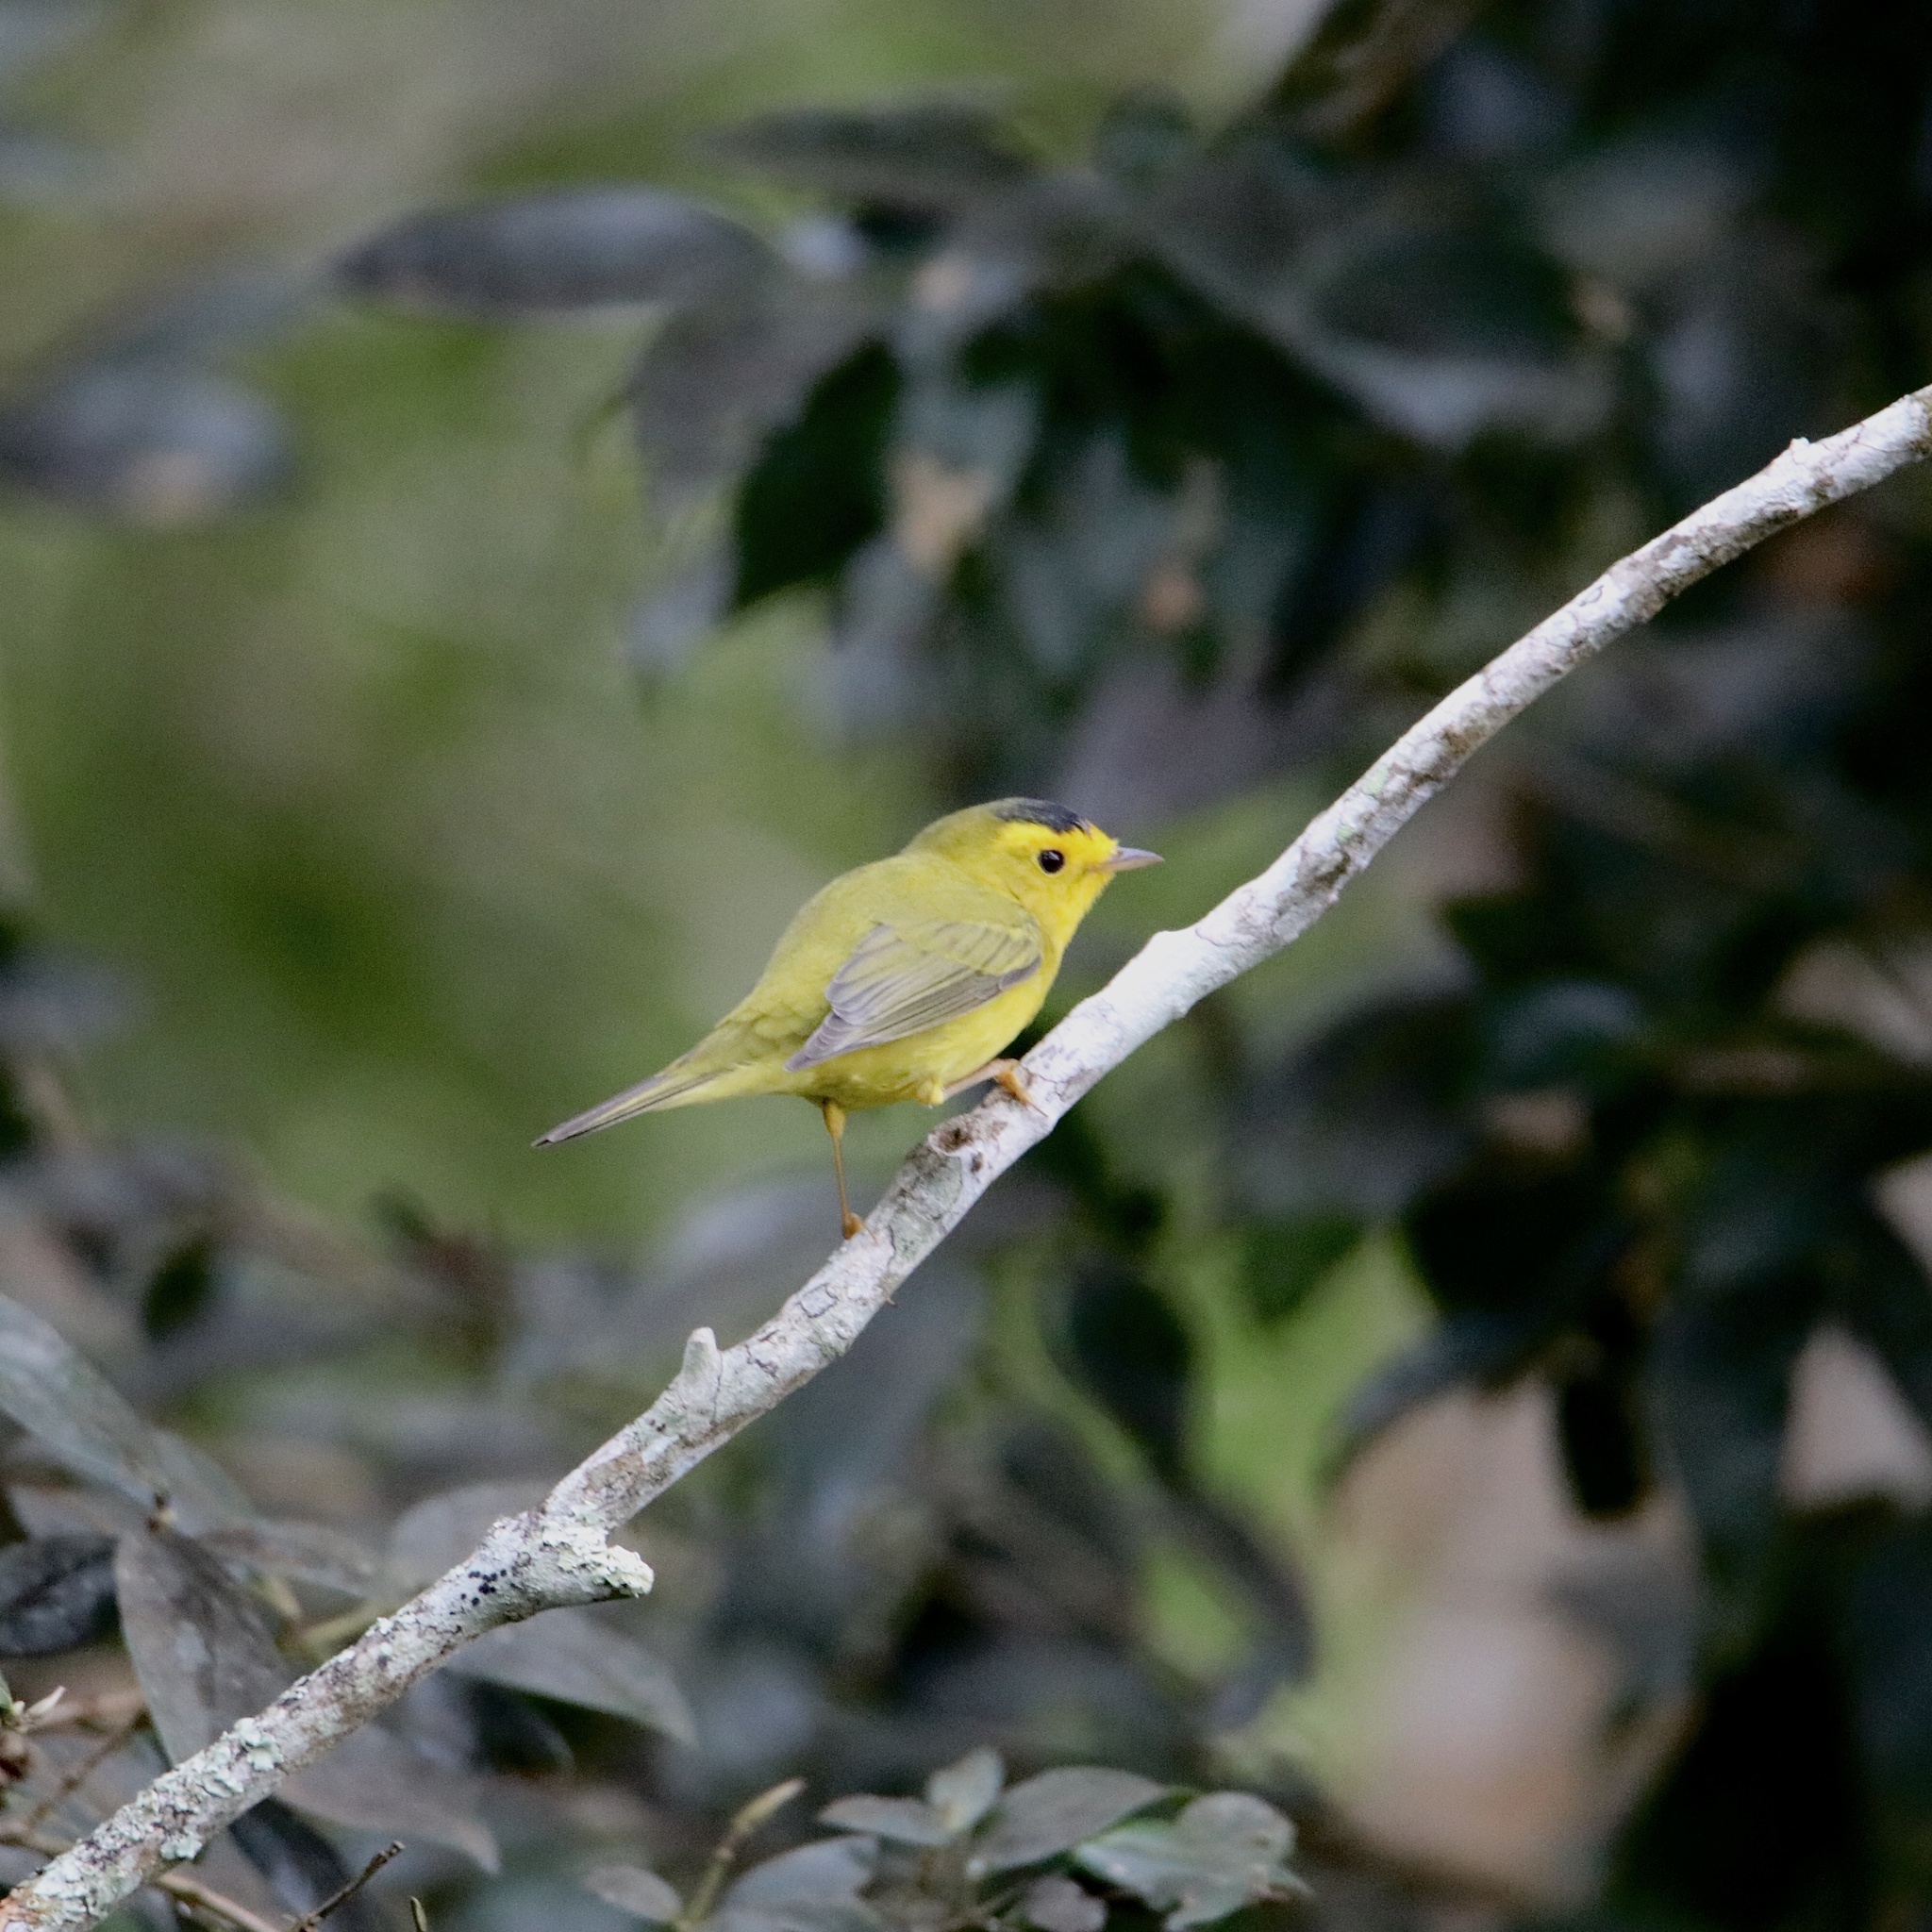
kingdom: Animalia
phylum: Chordata
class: Aves
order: Passeriformes
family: Parulidae
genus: Cardellina
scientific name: Cardellina pusilla
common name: Wilson's warbler
